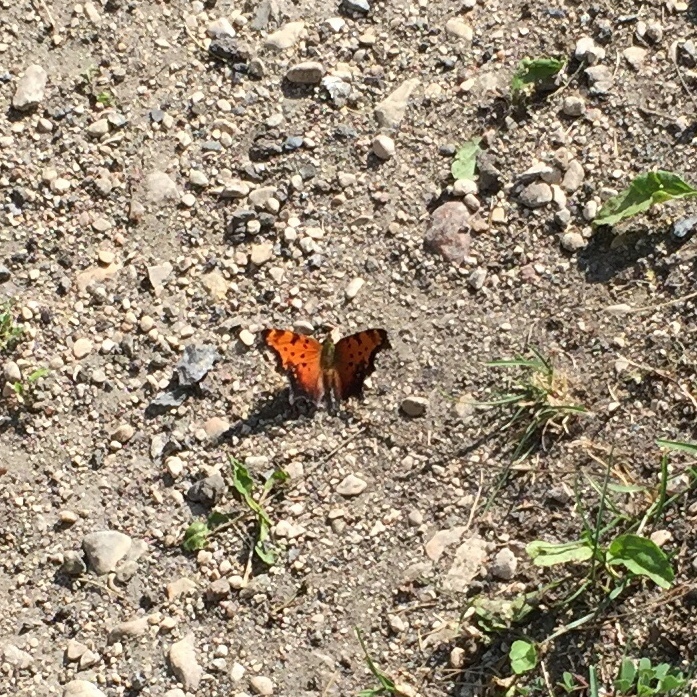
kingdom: Animalia
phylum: Arthropoda
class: Insecta
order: Lepidoptera
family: Nymphalidae
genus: Polygonia
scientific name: Polygonia progne
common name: Gray comma
